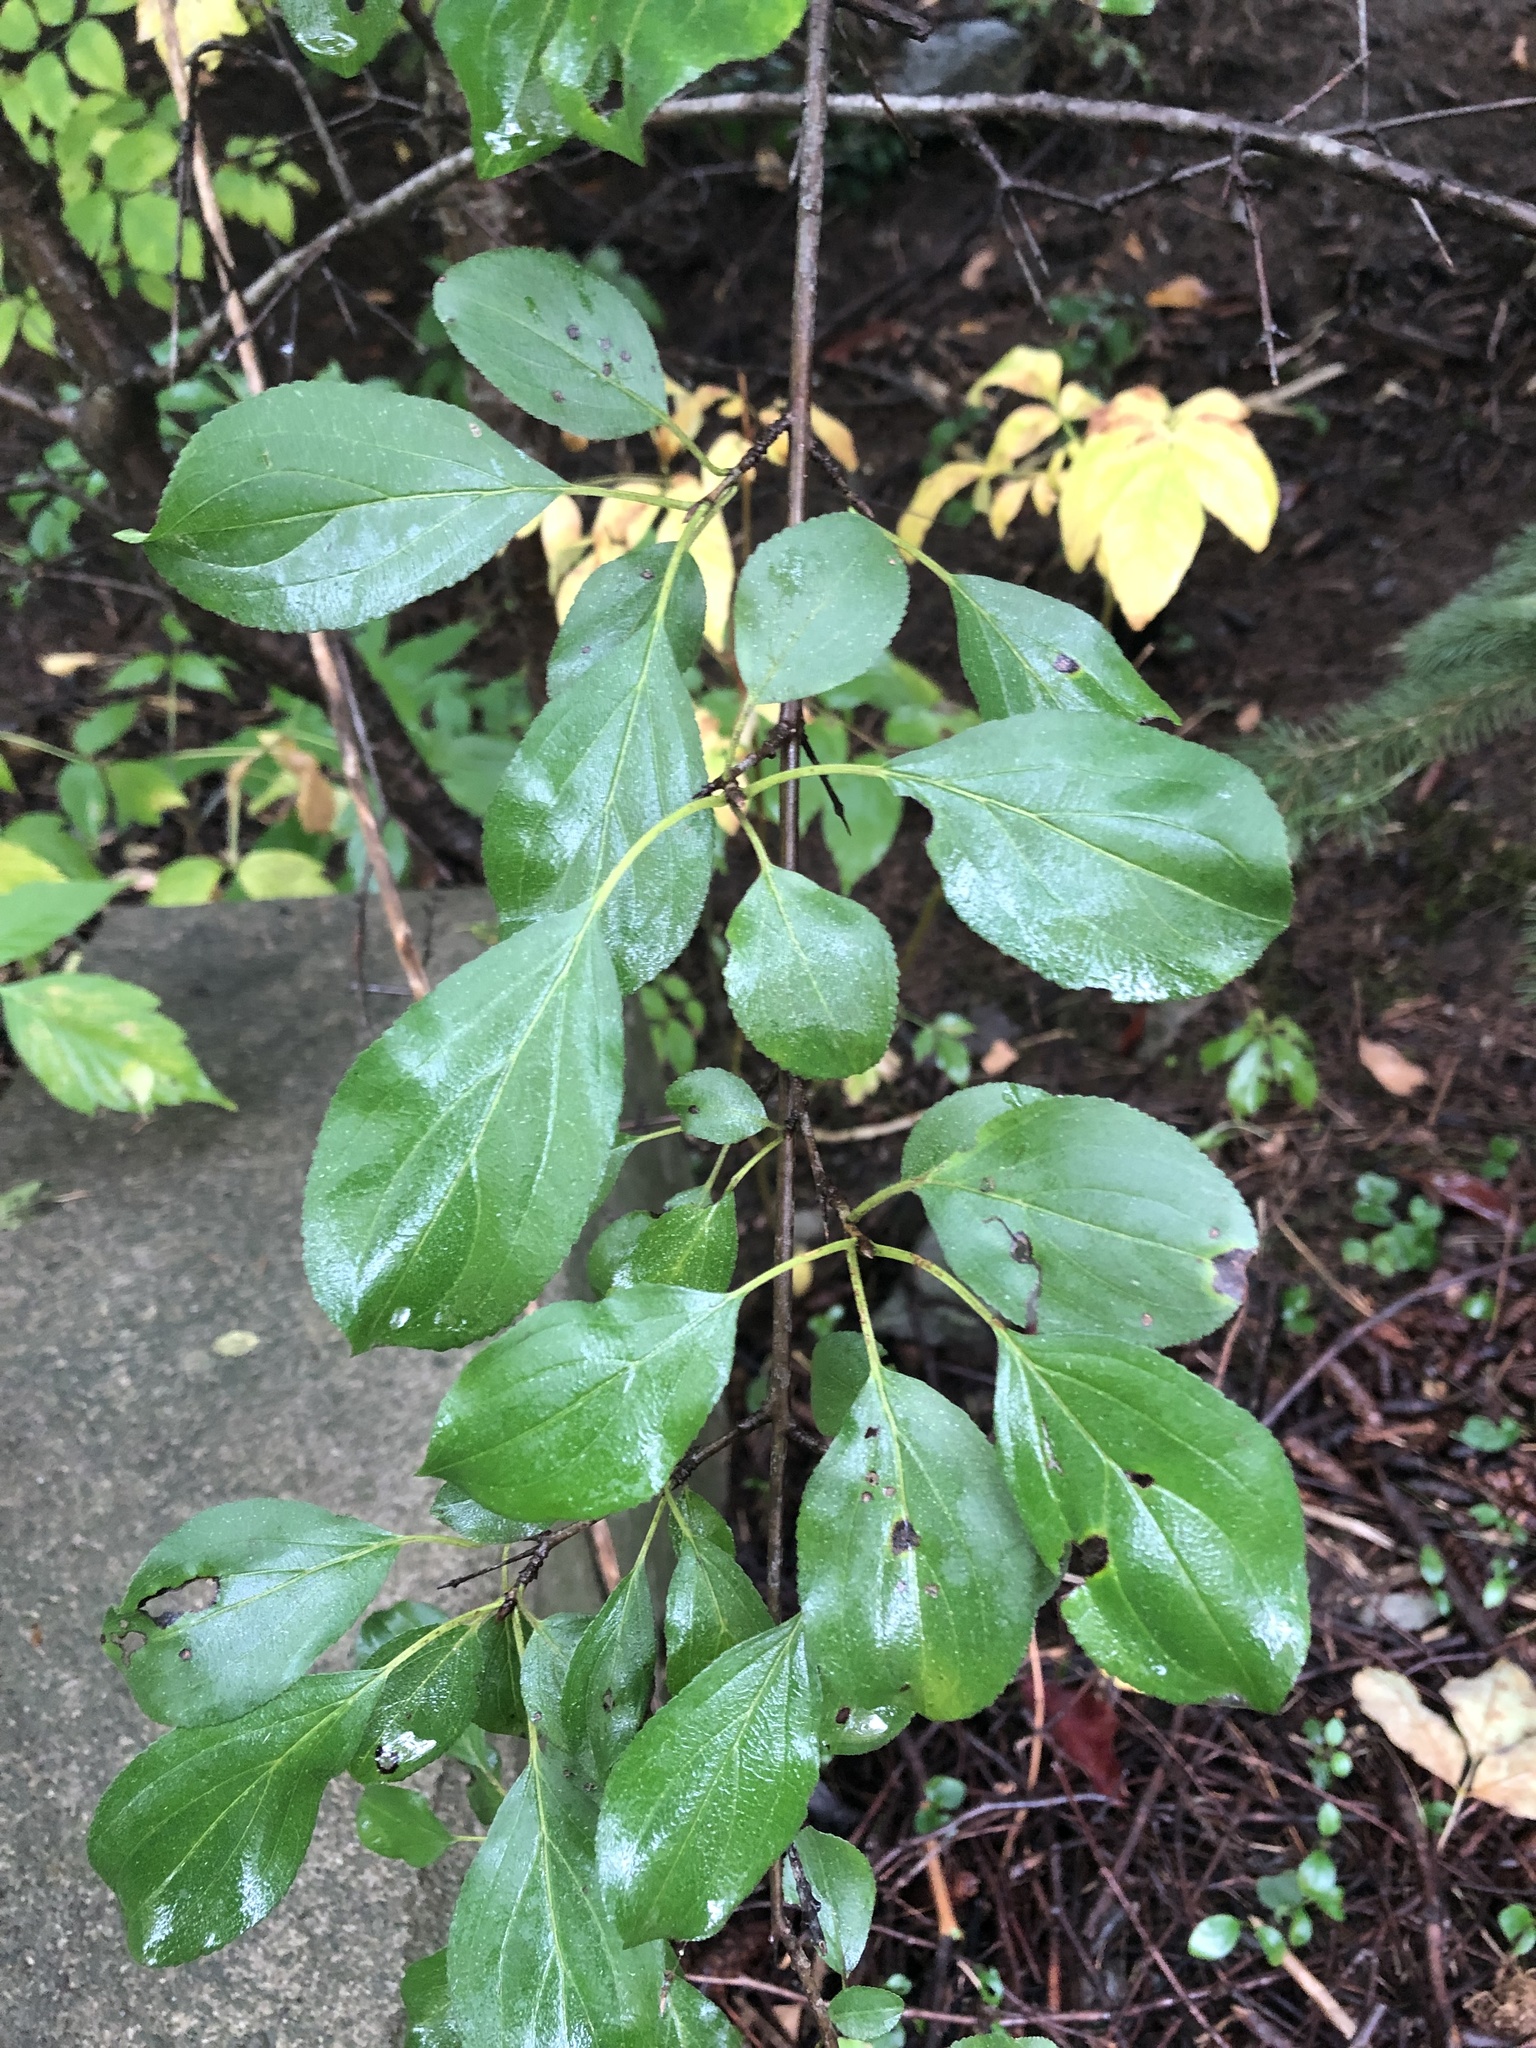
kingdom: Plantae
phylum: Tracheophyta
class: Magnoliopsida
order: Rosales
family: Rhamnaceae
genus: Rhamnus
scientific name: Rhamnus cathartica
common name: Common buckthorn
